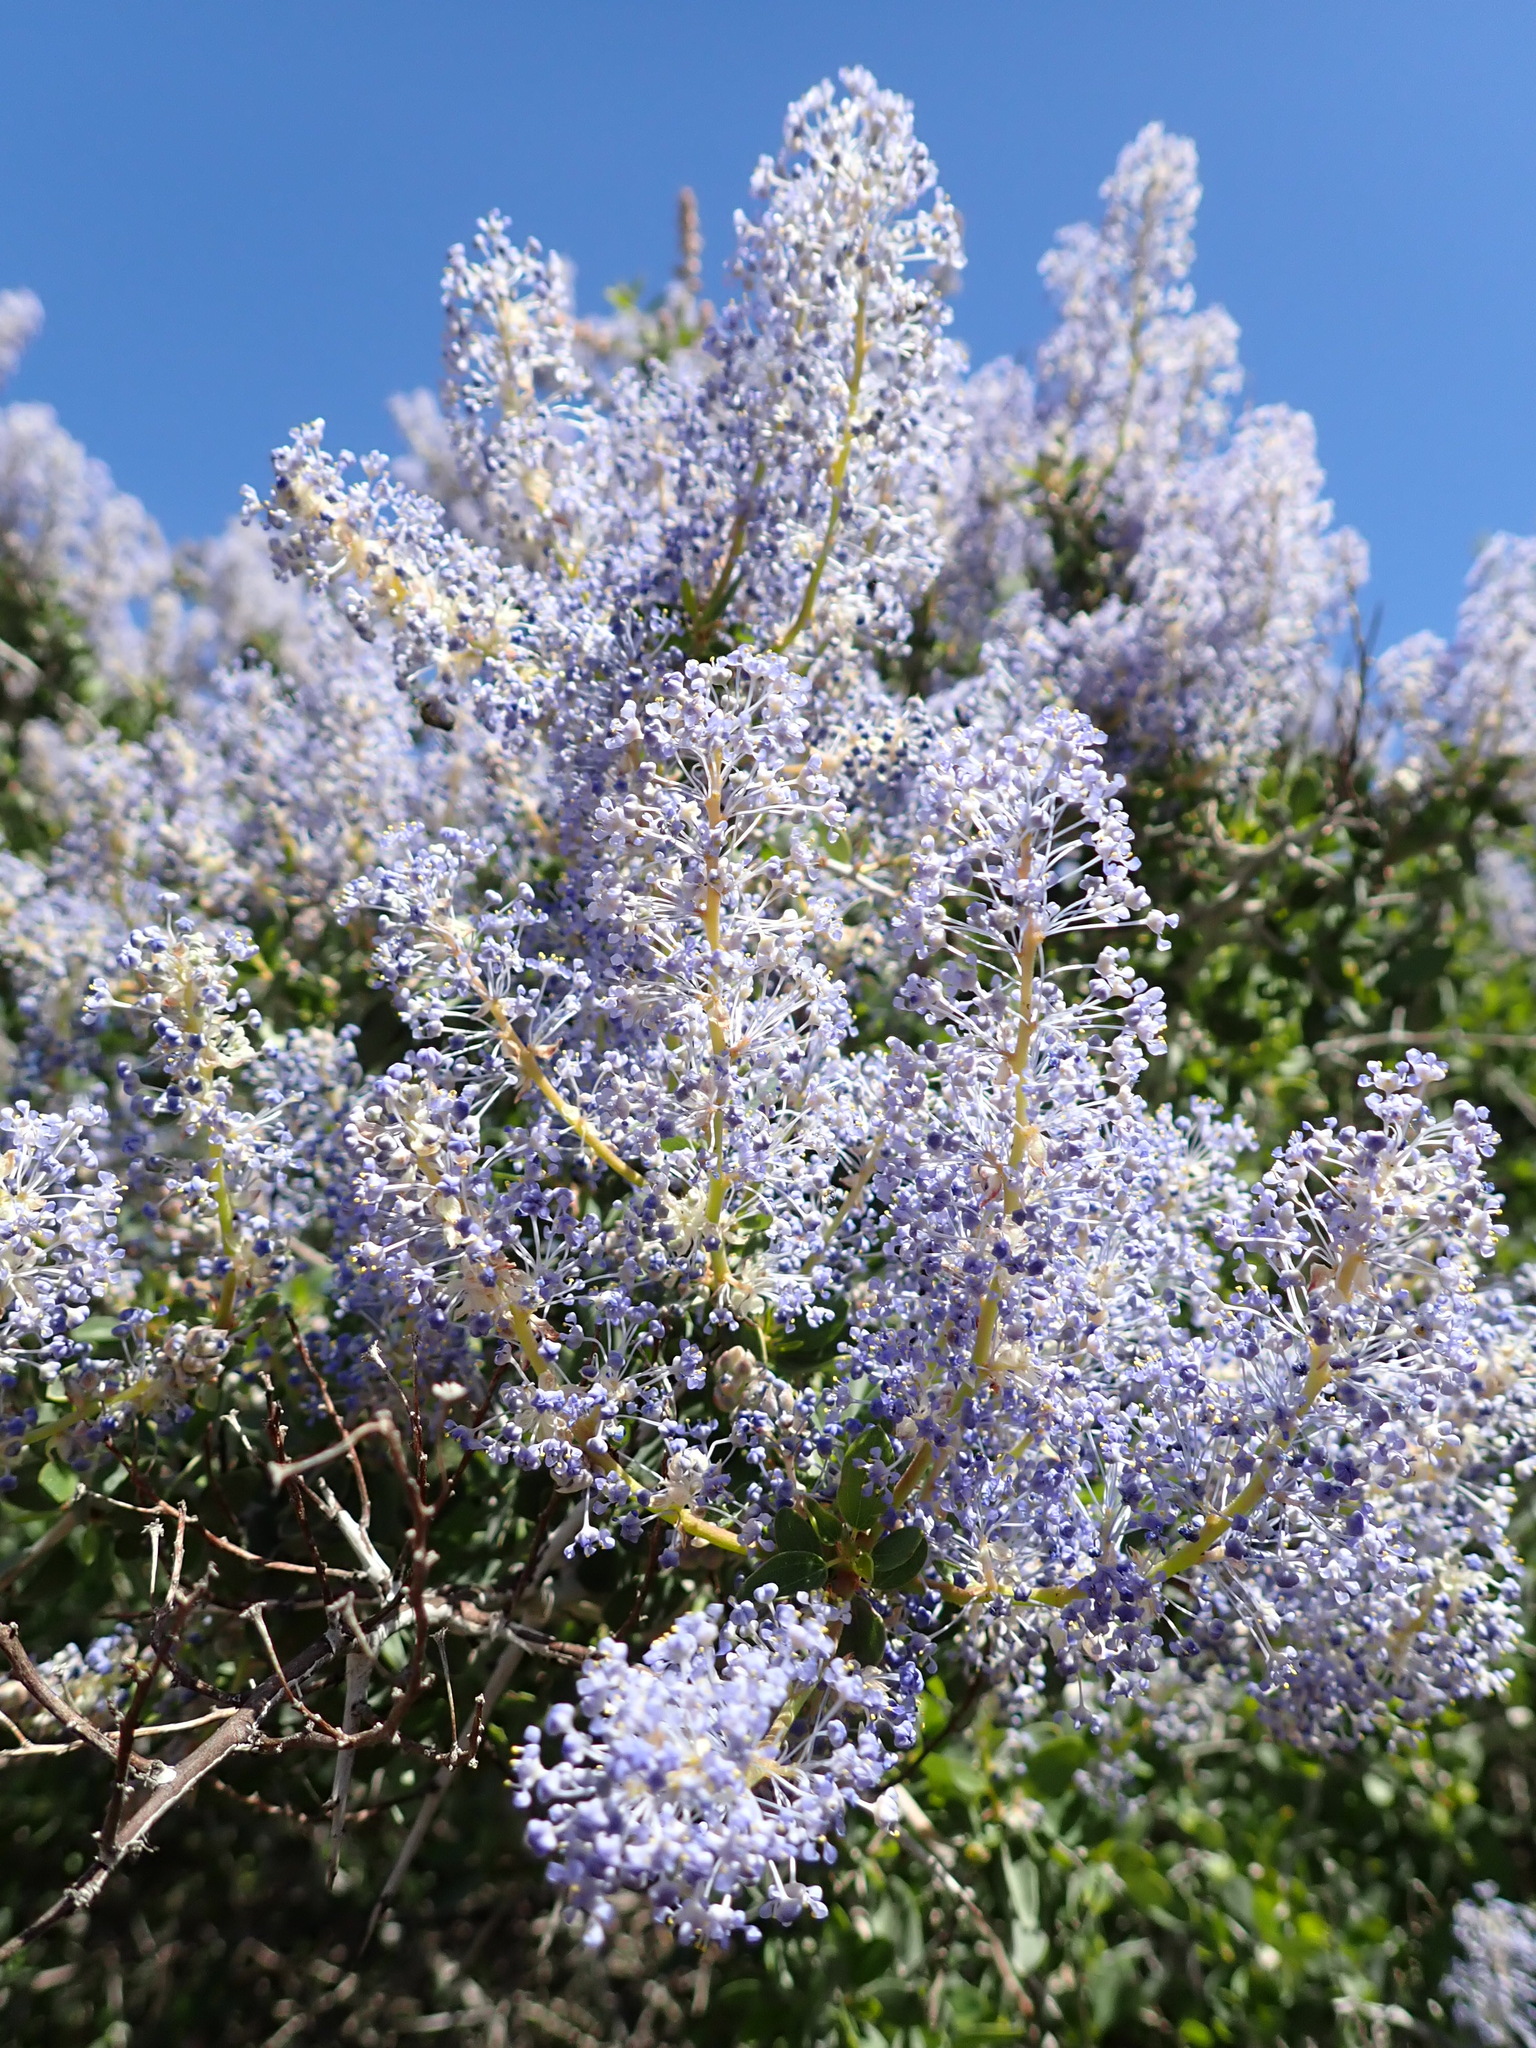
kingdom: Plantae
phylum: Tracheophyta
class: Magnoliopsida
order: Rosales
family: Rhamnaceae
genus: Ceanothus
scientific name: Ceanothus sorediatus
